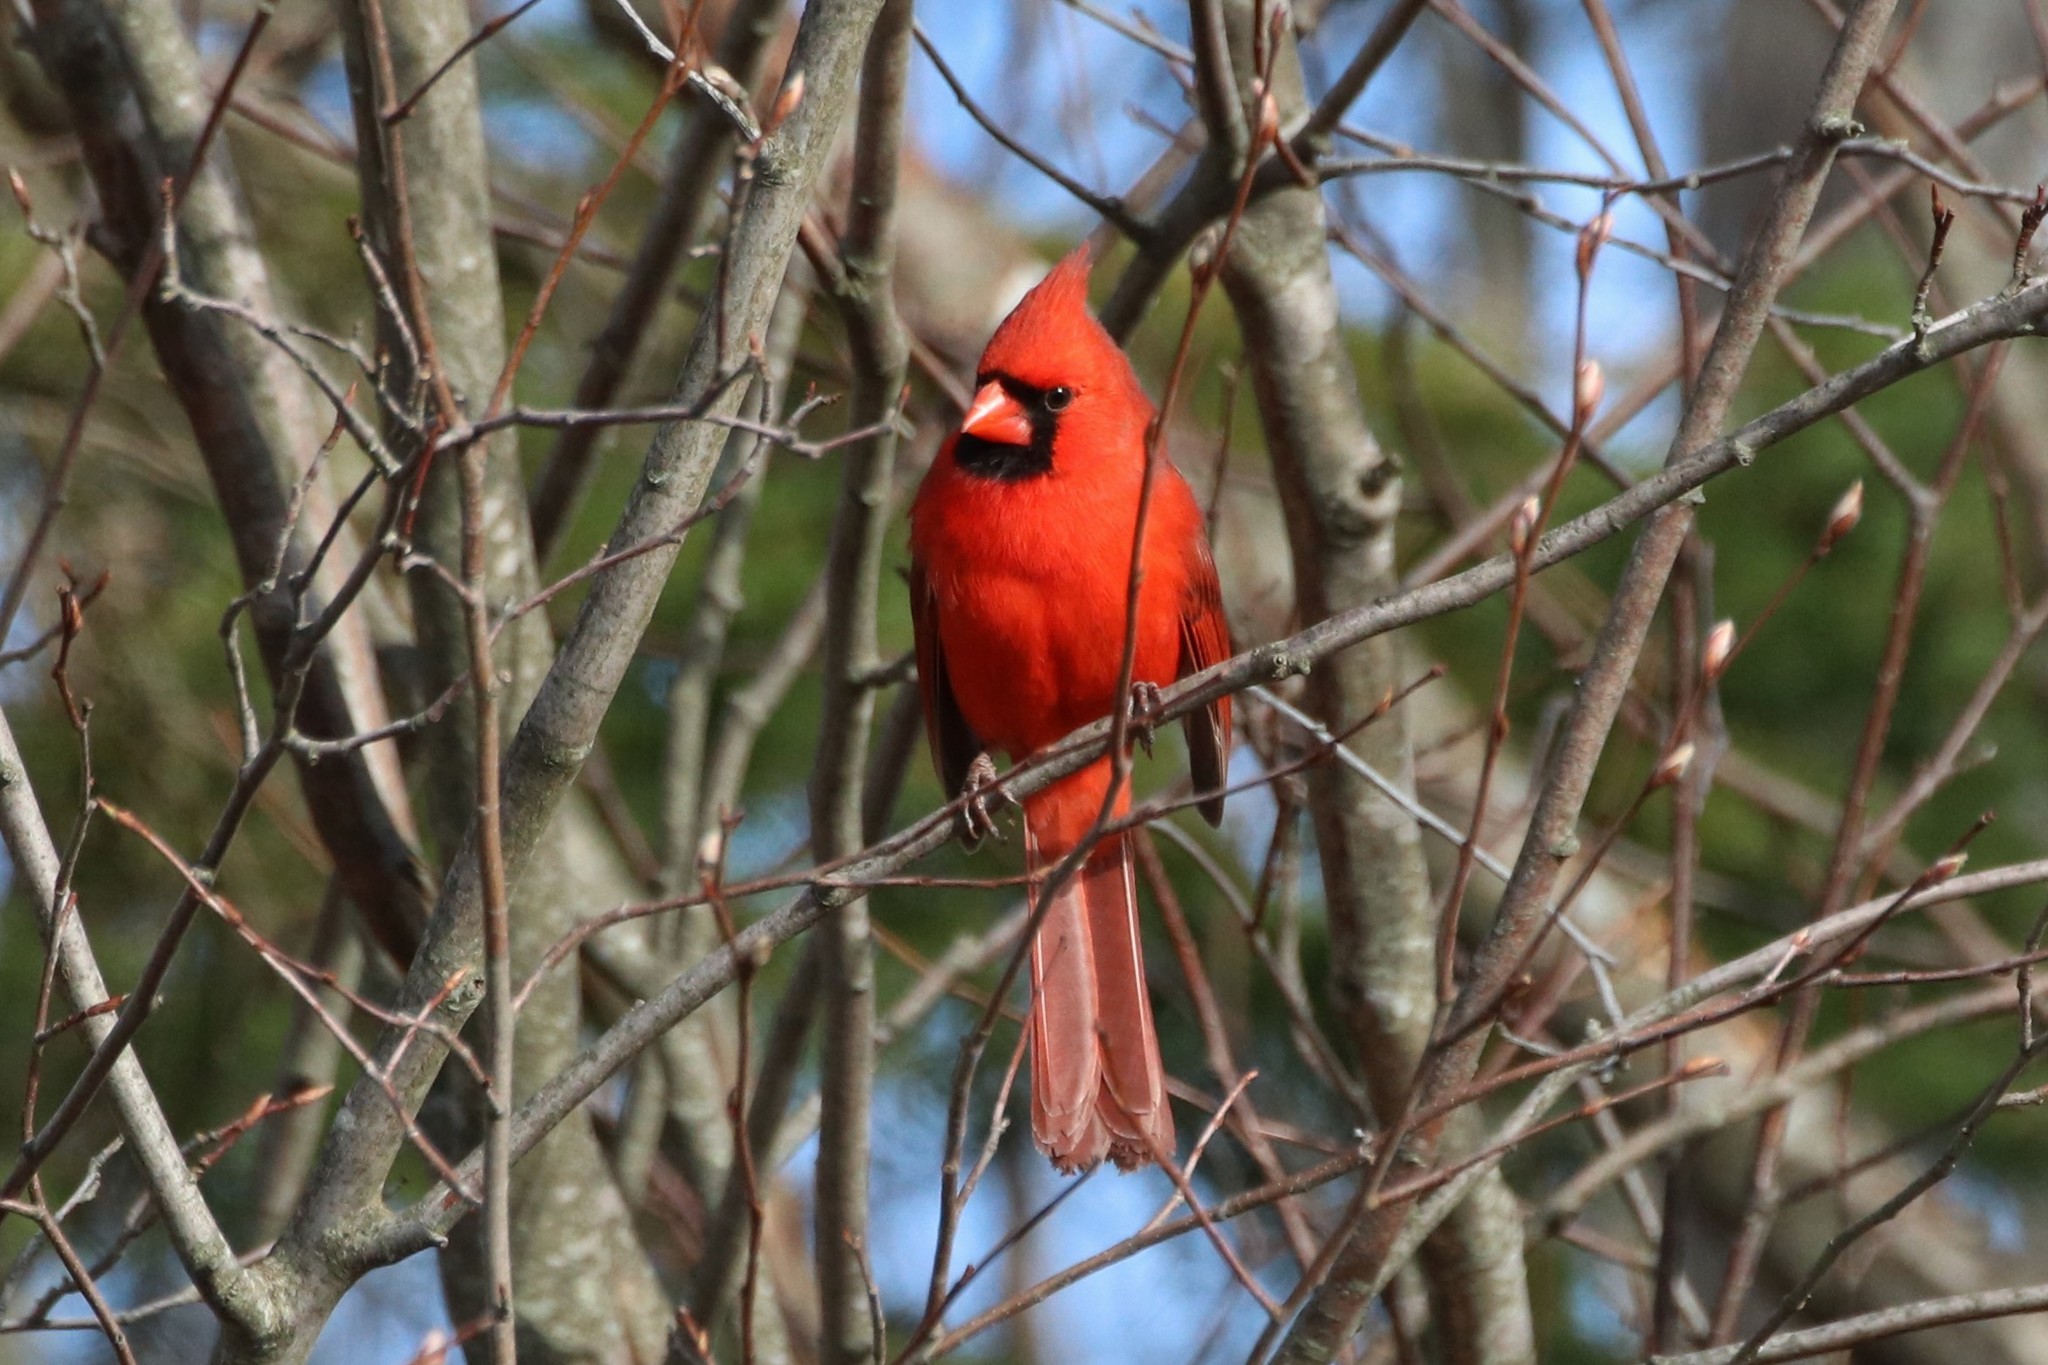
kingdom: Animalia
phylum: Chordata
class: Aves
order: Passeriformes
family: Cardinalidae
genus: Cardinalis
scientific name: Cardinalis cardinalis
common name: Northern cardinal
